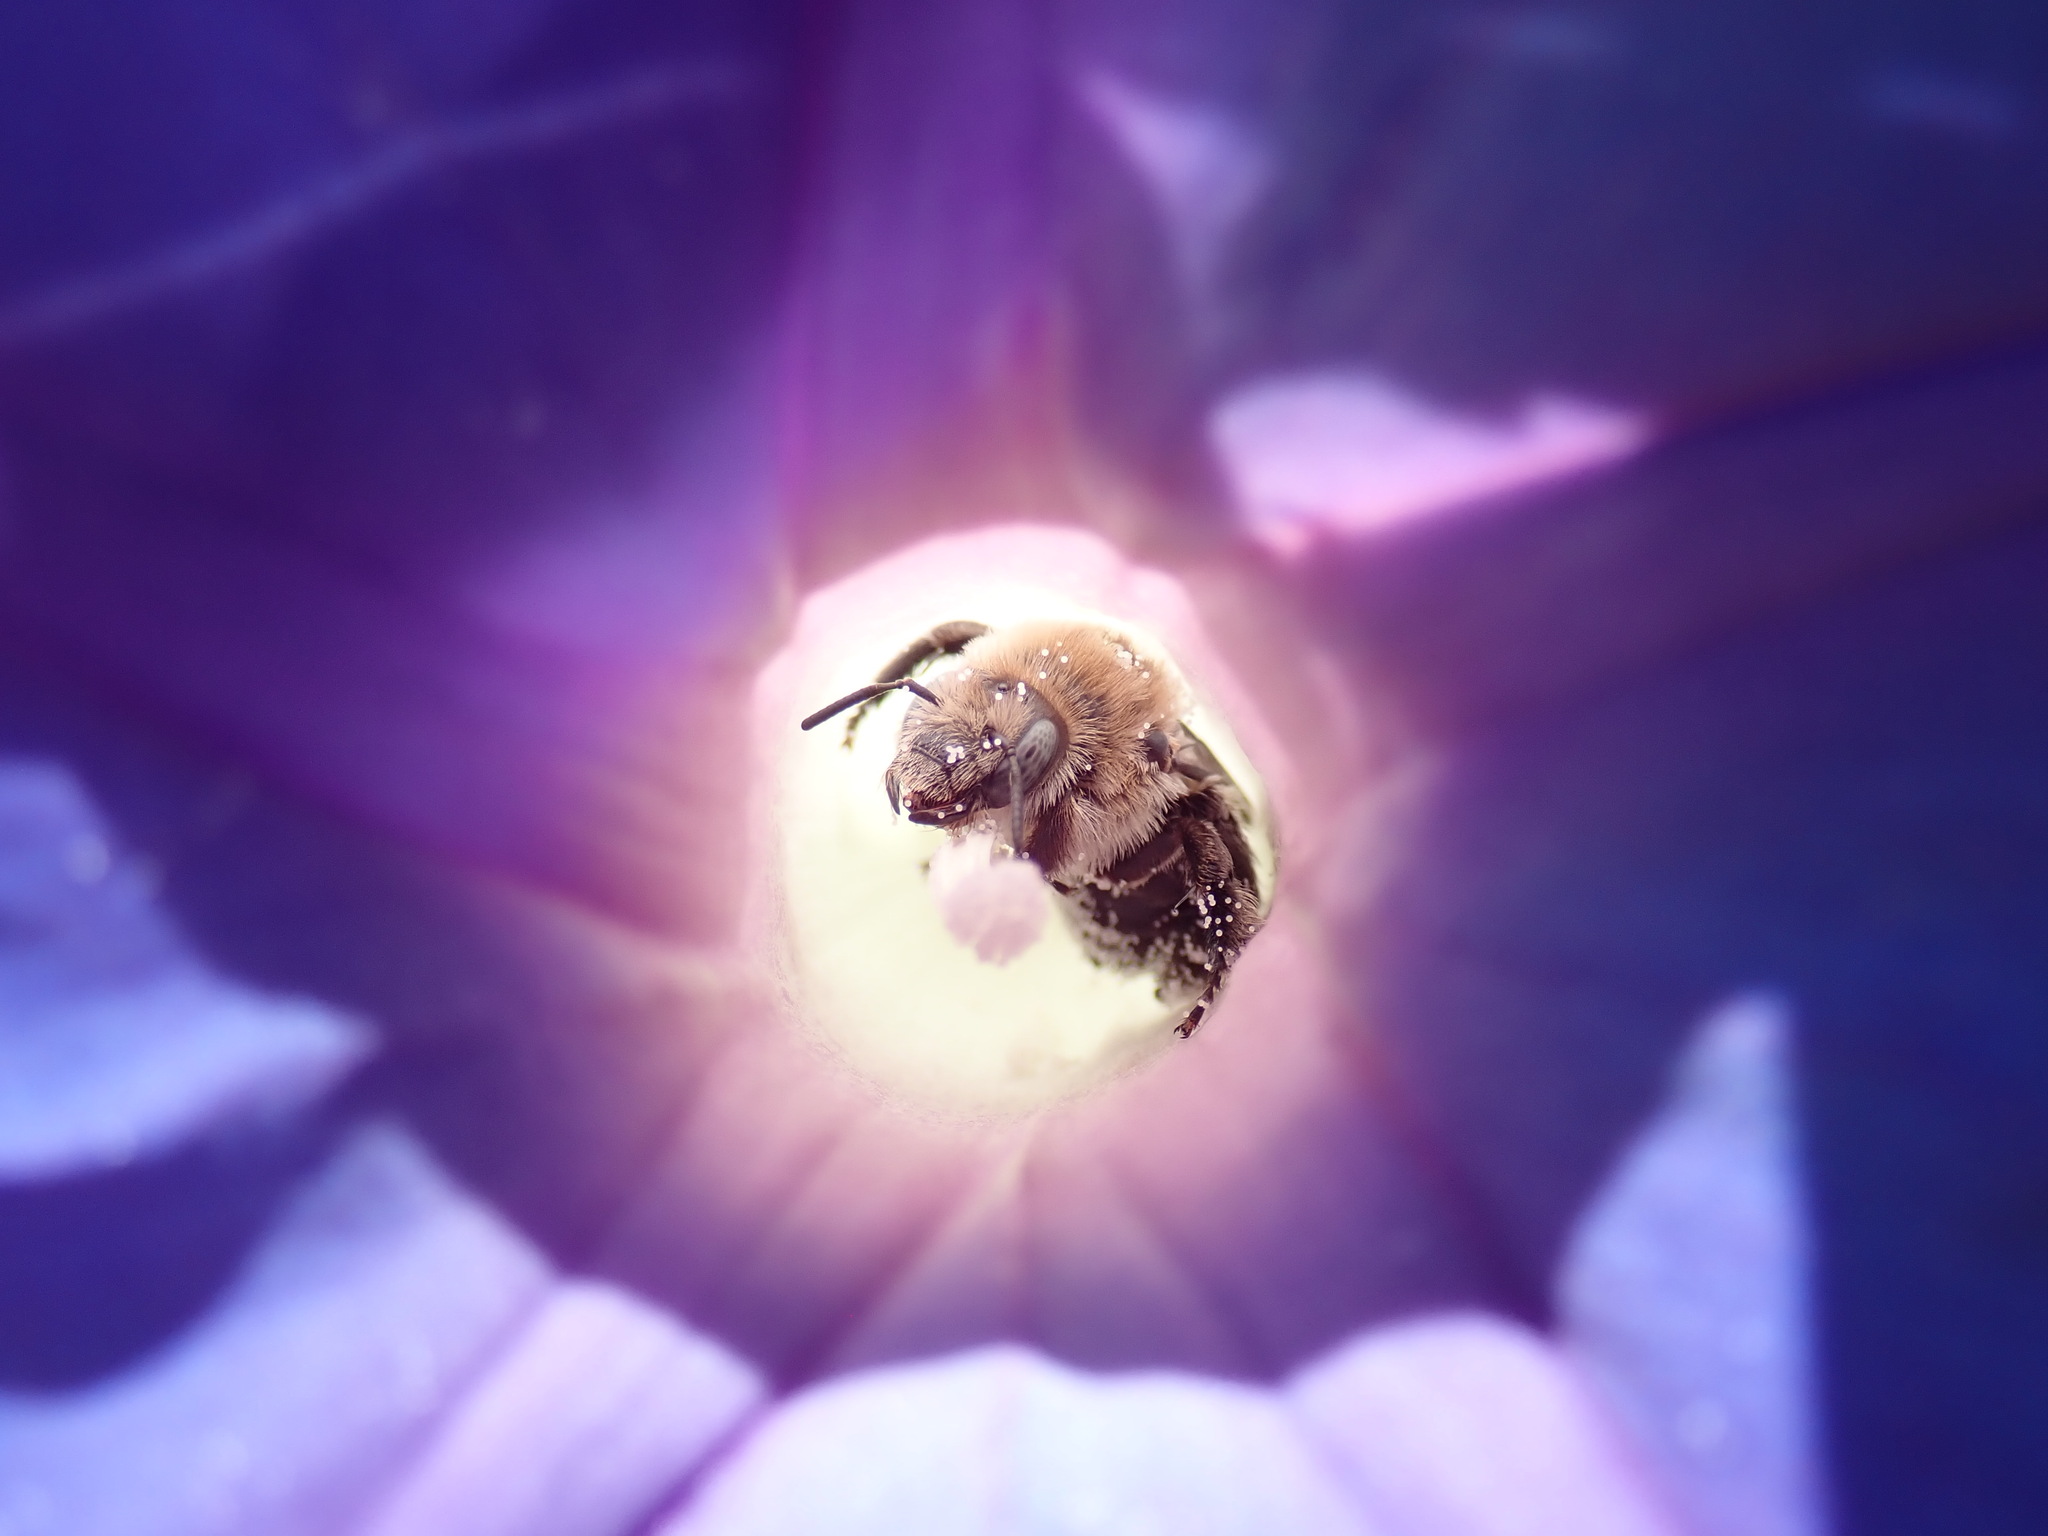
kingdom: Animalia
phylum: Arthropoda
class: Insecta
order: Hymenoptera
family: Apidae
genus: Diadasia
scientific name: Diadasia bituberculata
